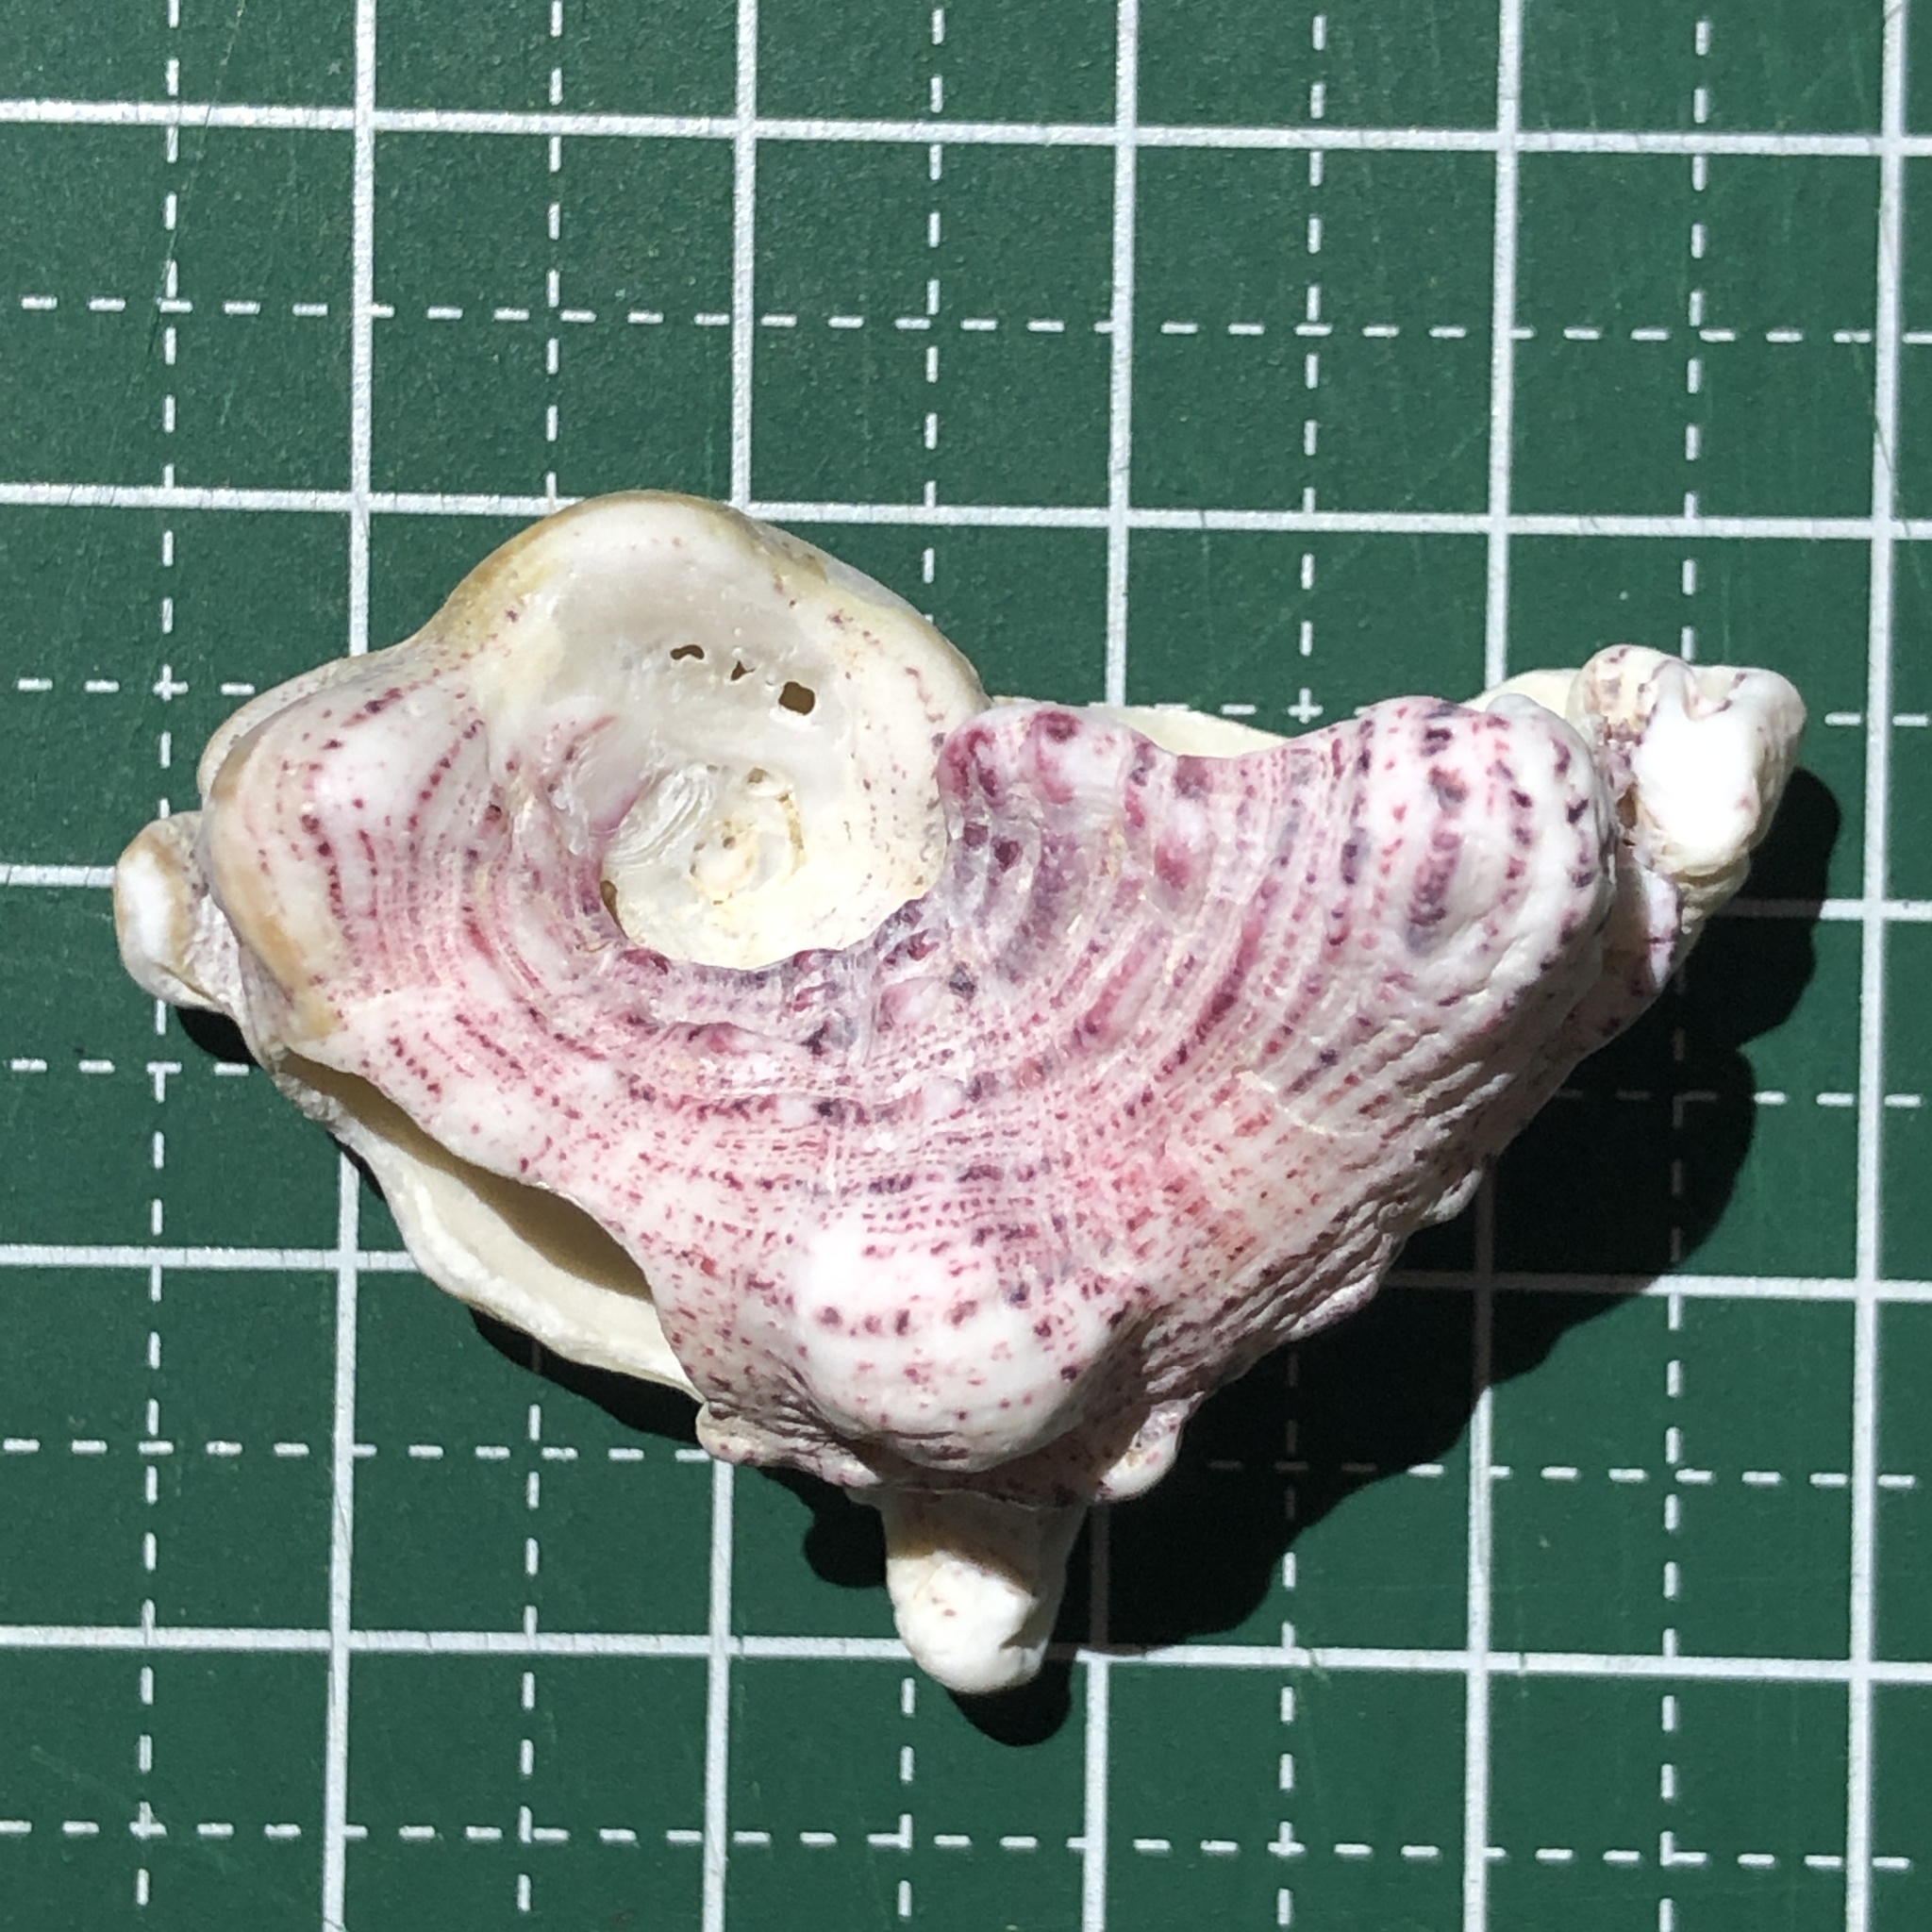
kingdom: Animalia
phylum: Mollusca
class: Gastropoda
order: Trochida
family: Angariidae
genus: Angaria
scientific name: Angaria exasperata
